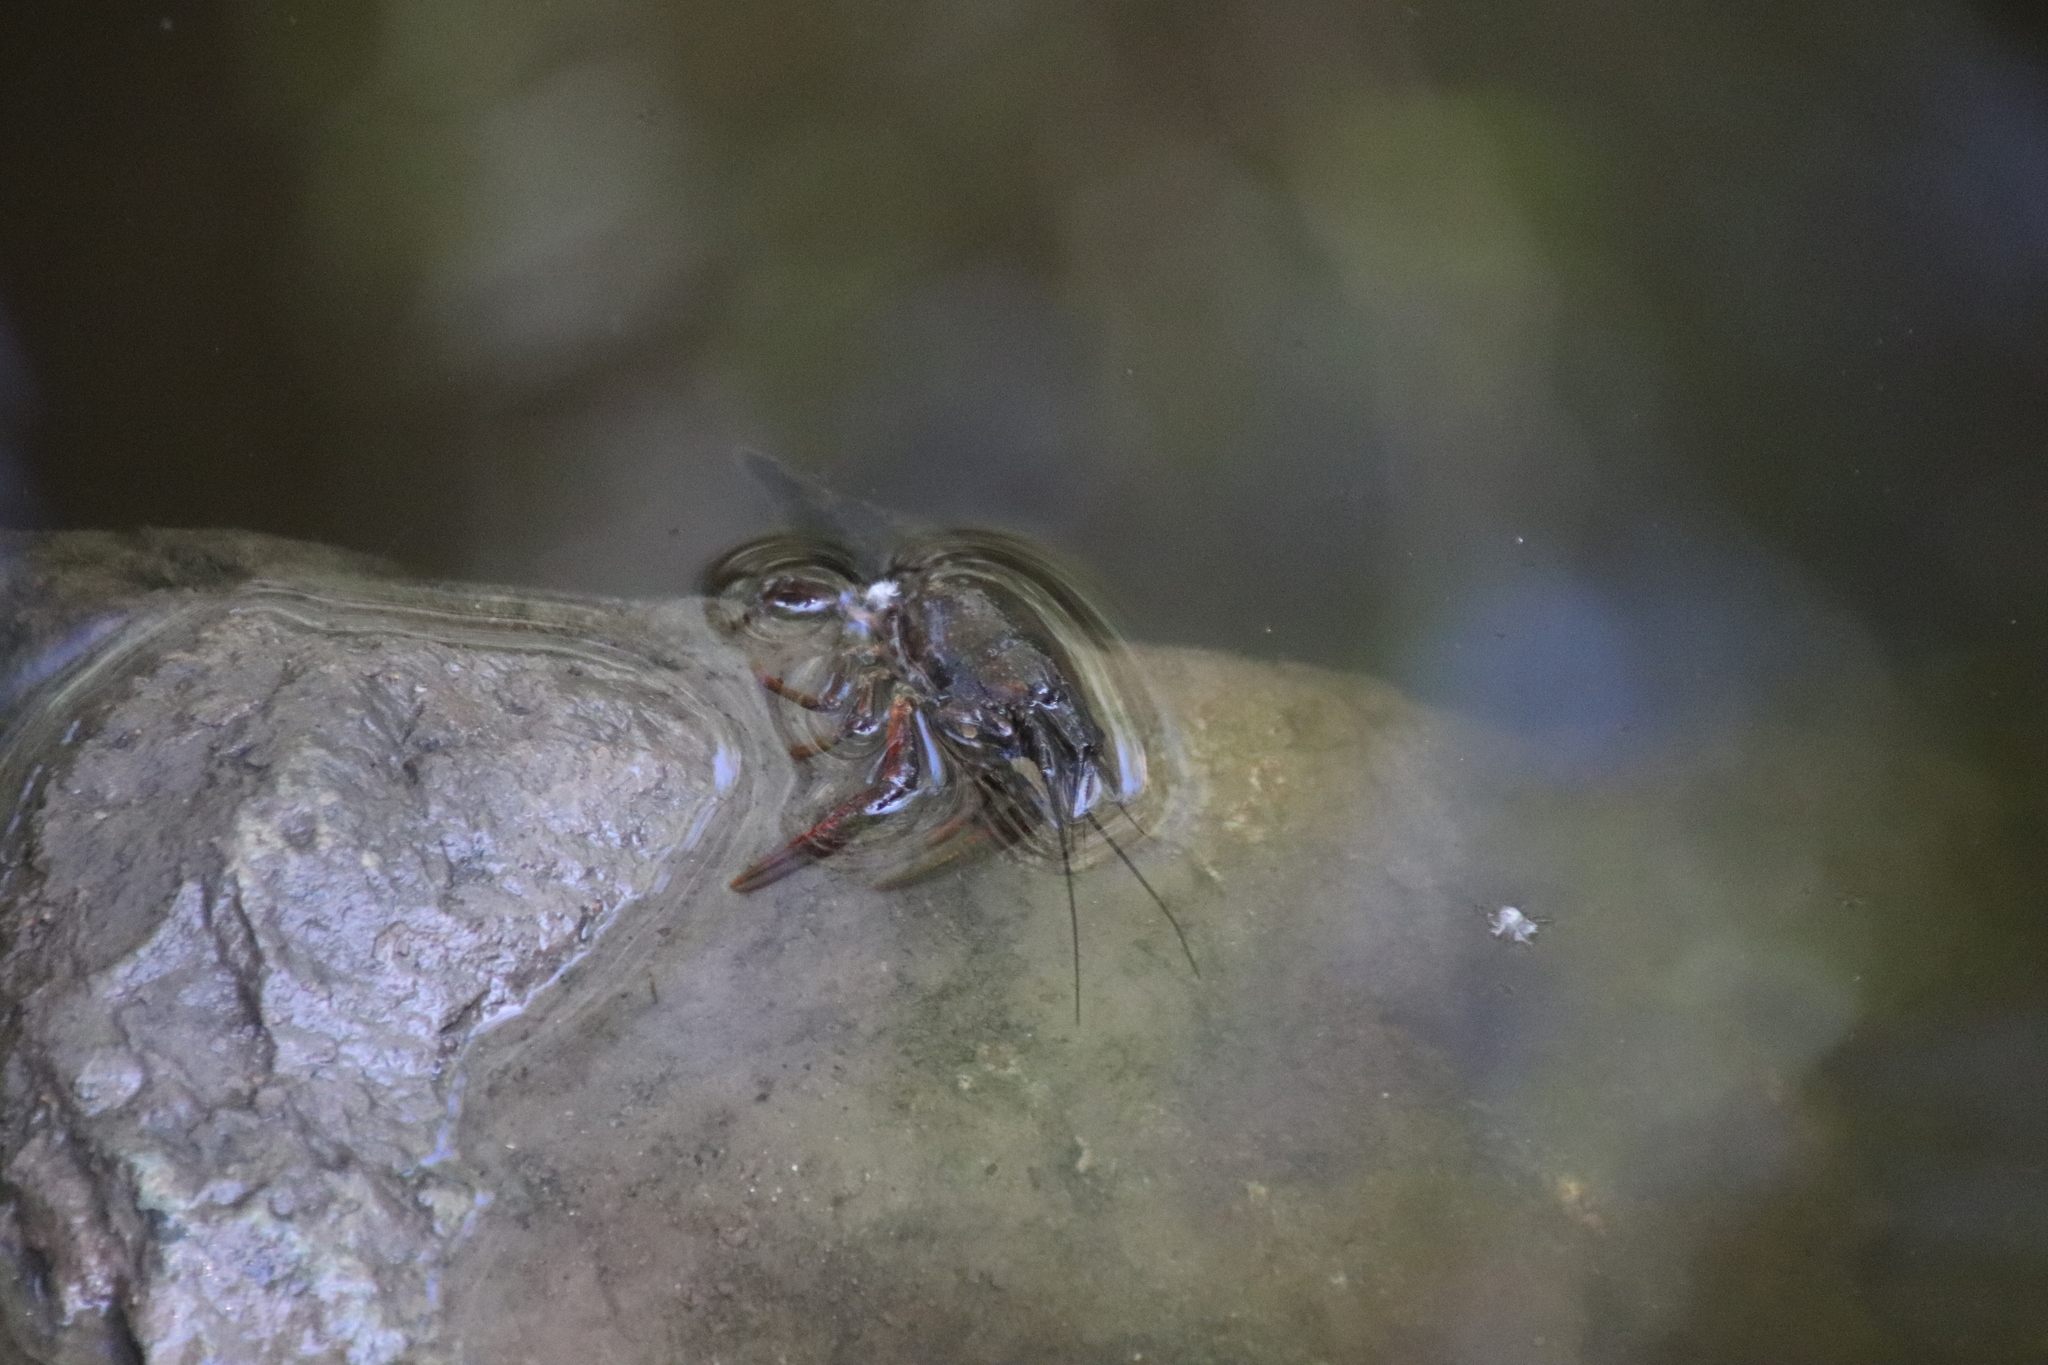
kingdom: Animalia
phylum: Arthropoda
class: Malacostraca
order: Decapoda
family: Cambaridae
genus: Procambarus
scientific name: Procambarus clarkii
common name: Red swamp crayfish
